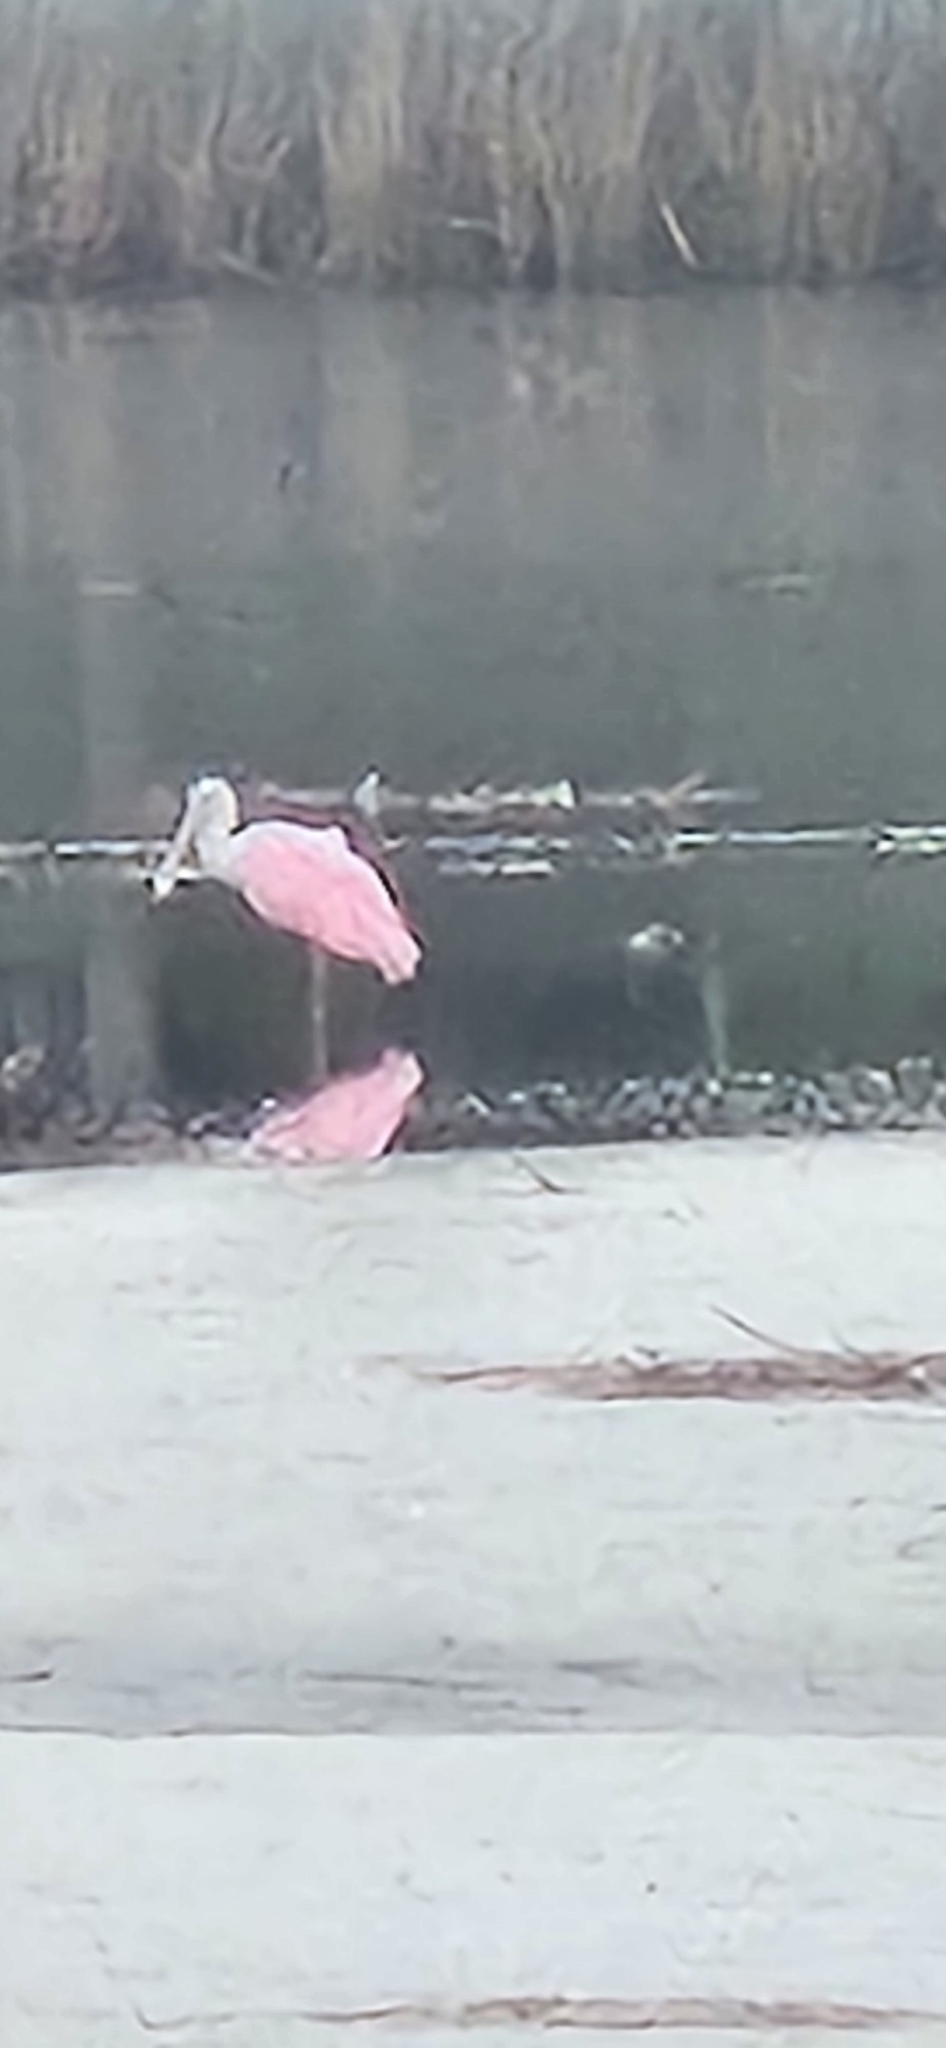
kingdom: Animalia
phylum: Chordata
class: Aves
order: Pelecaniformes
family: Threskiornithidae
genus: Platalea
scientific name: Platalea ajaja
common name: Roseate spoonbill
